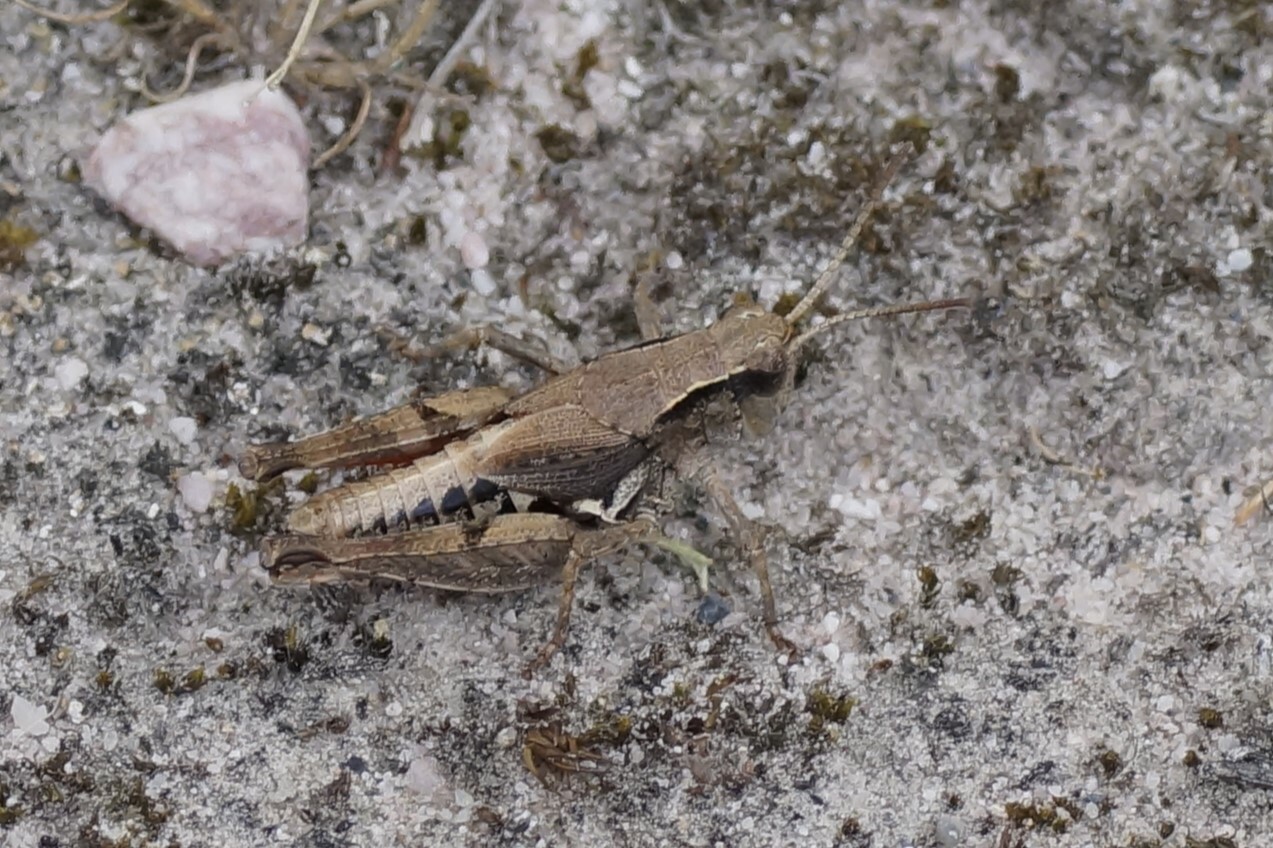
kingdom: Animalia
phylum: Arthropoda
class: Insecta
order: Orthoptera
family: Acrididae
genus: Phaulacridium
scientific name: Phaulacridium vittatum
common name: Wingless grasshopper
